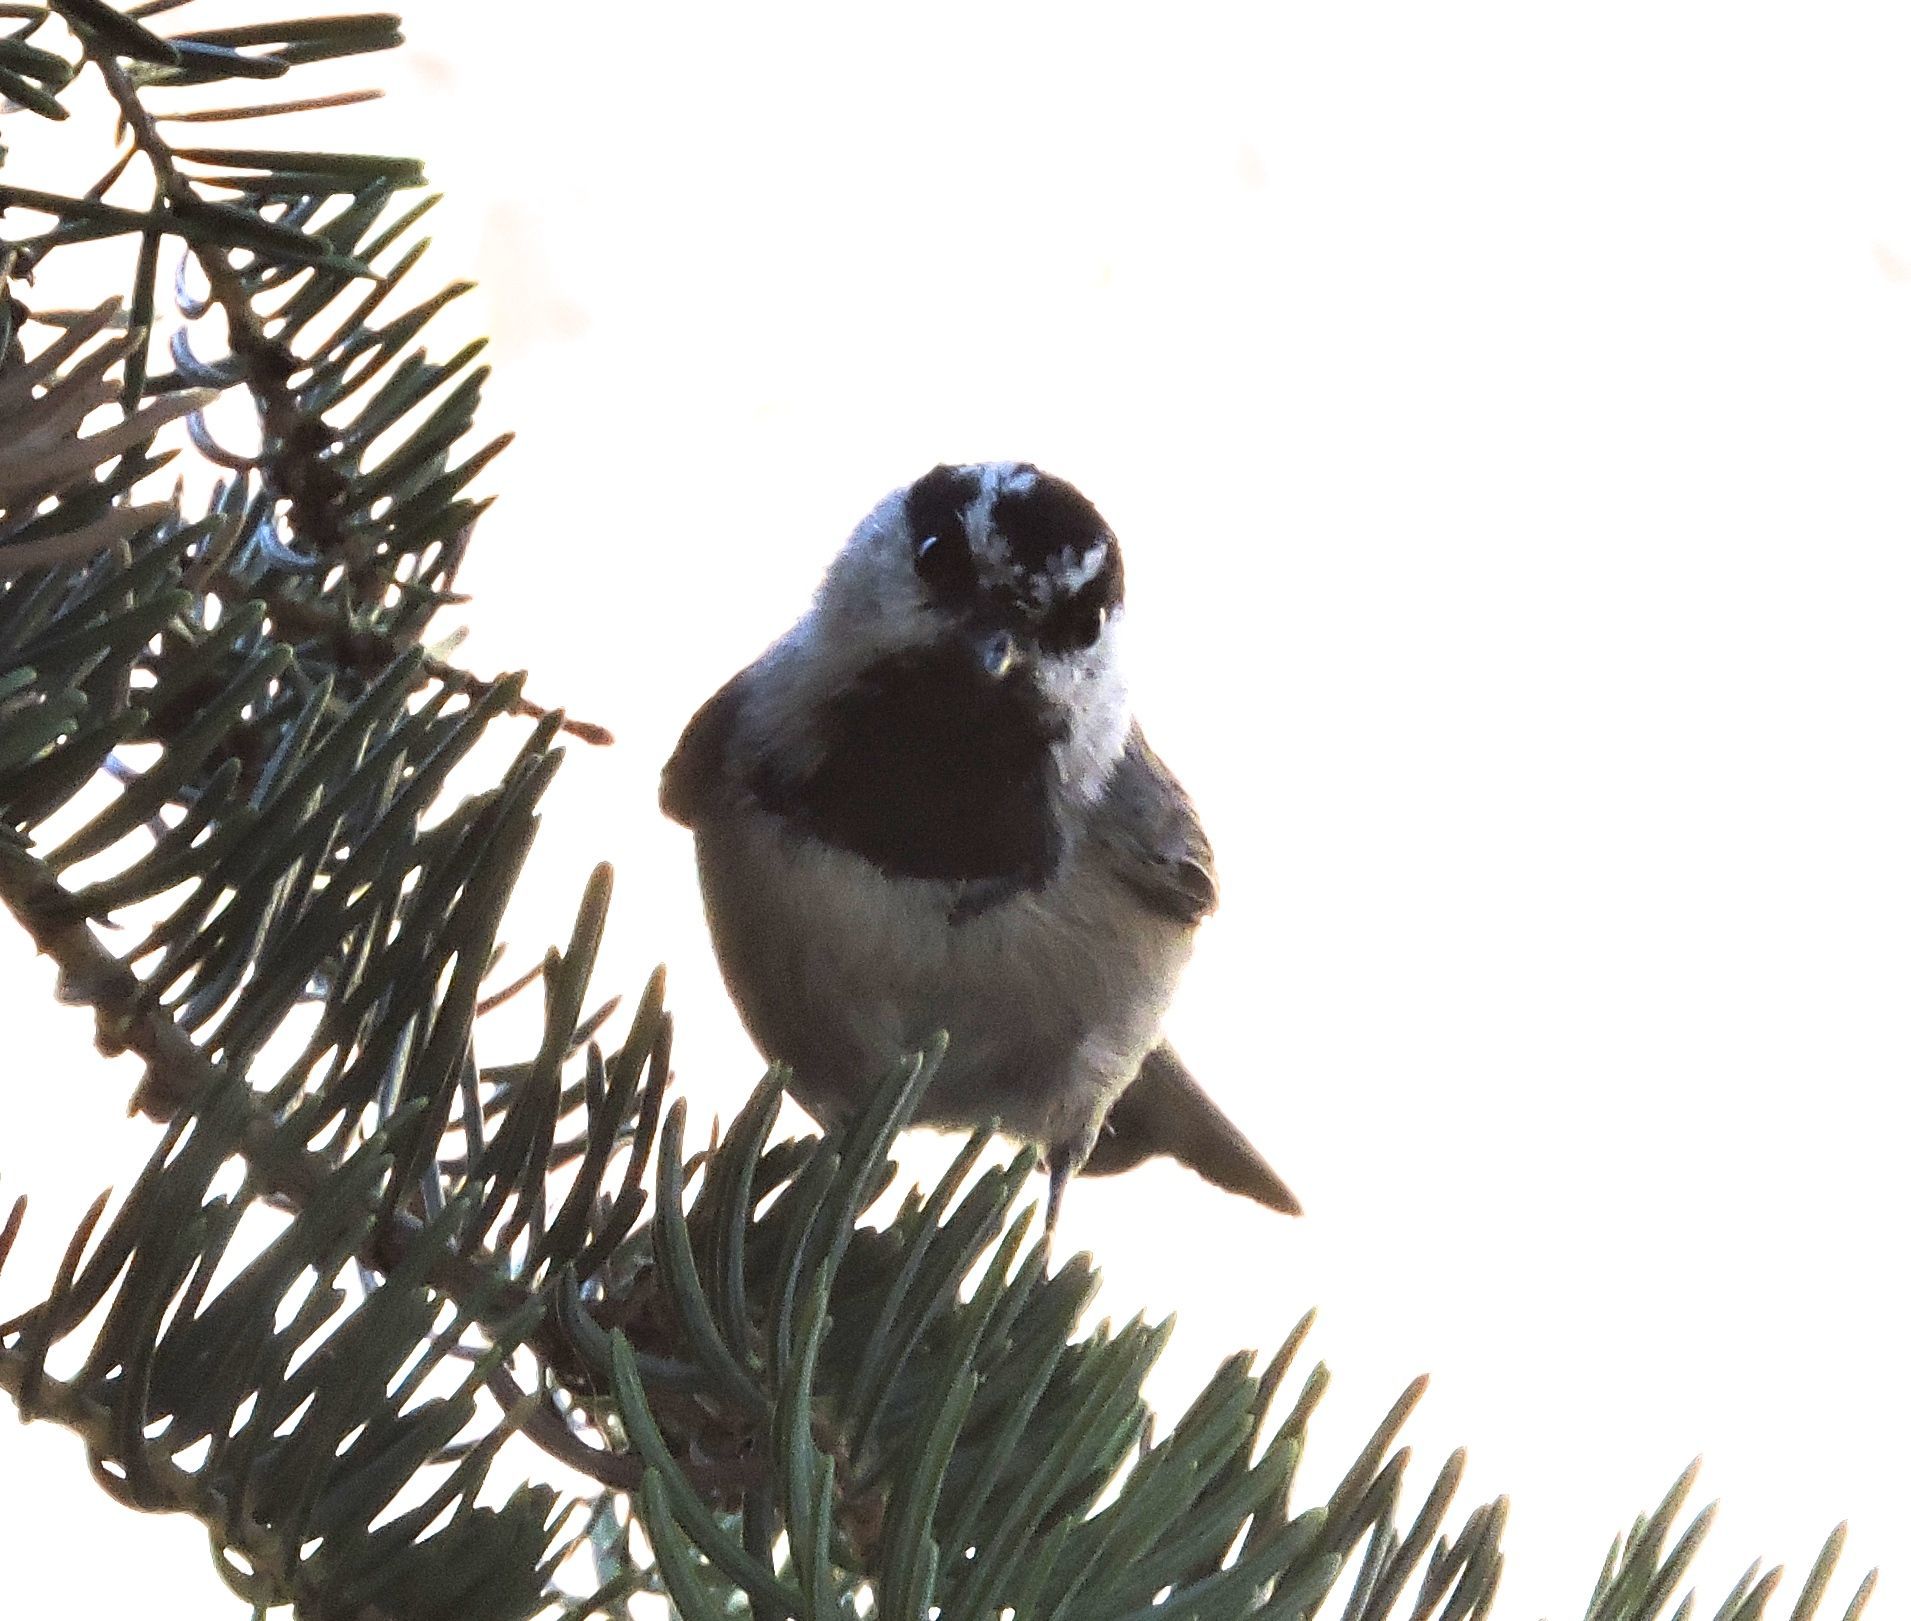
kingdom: Animalia
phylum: Chordata
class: Aves
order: Passeriformes
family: Paridae
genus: Poecile
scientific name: Poecile gambeli
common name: Mountain chickadee
